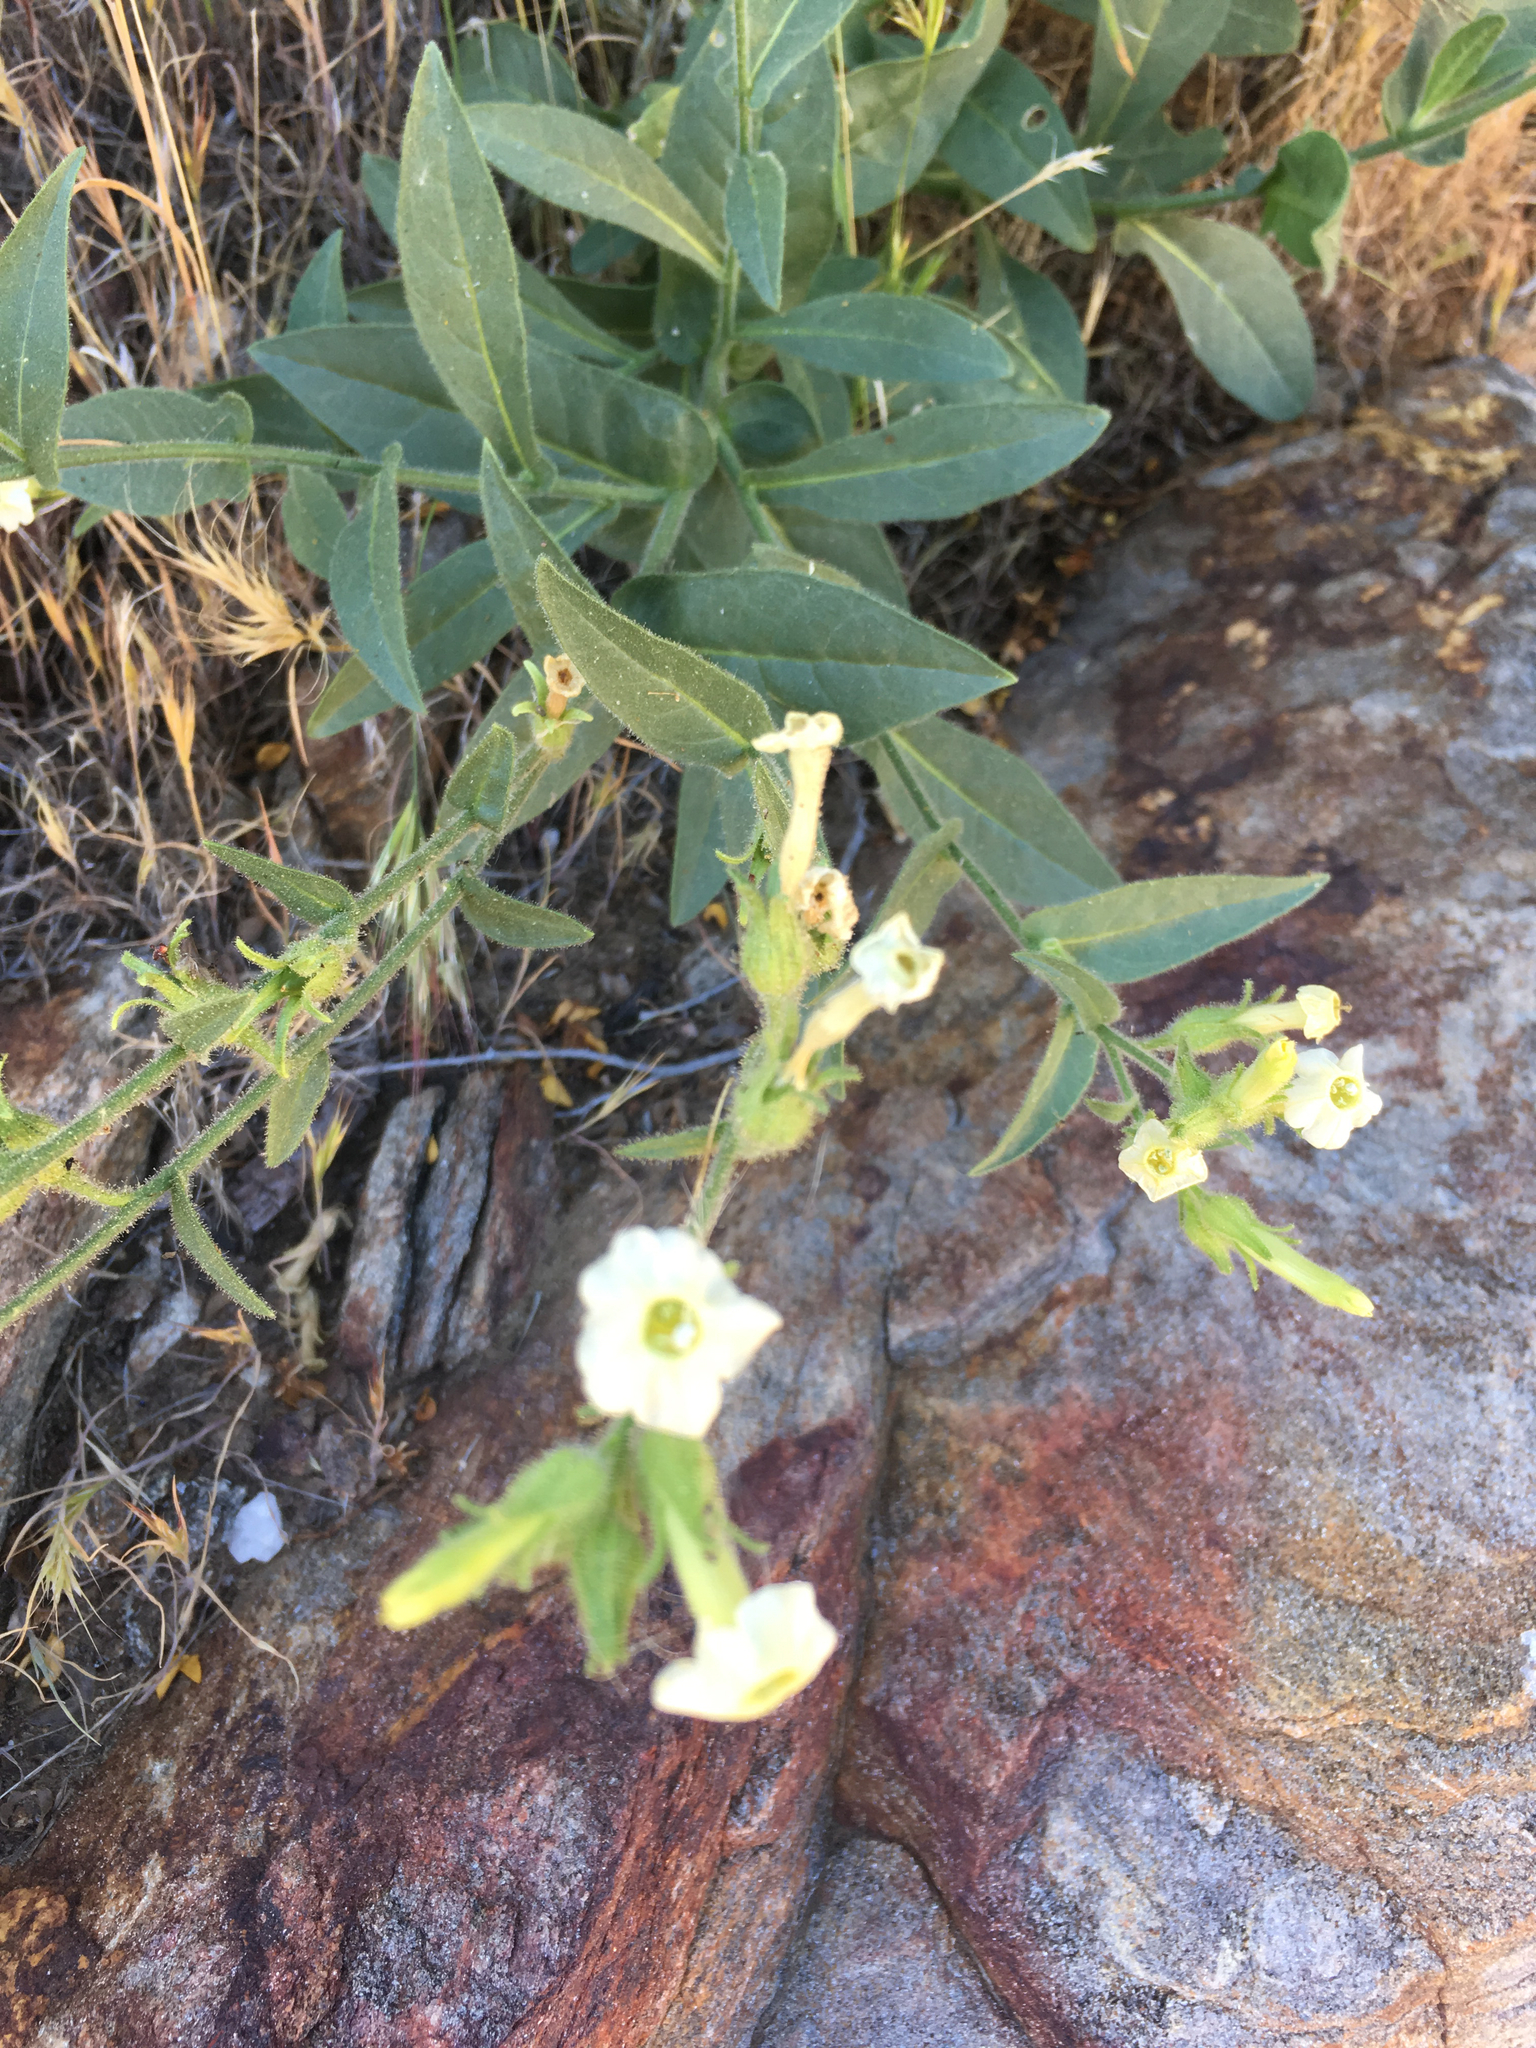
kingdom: Plantae
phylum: Tracheophyta
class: Magnoliopsida
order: Solanales
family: Solanaceae
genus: Nicotiana
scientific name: Nicotiana obtusifolia
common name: Desert tobacco
